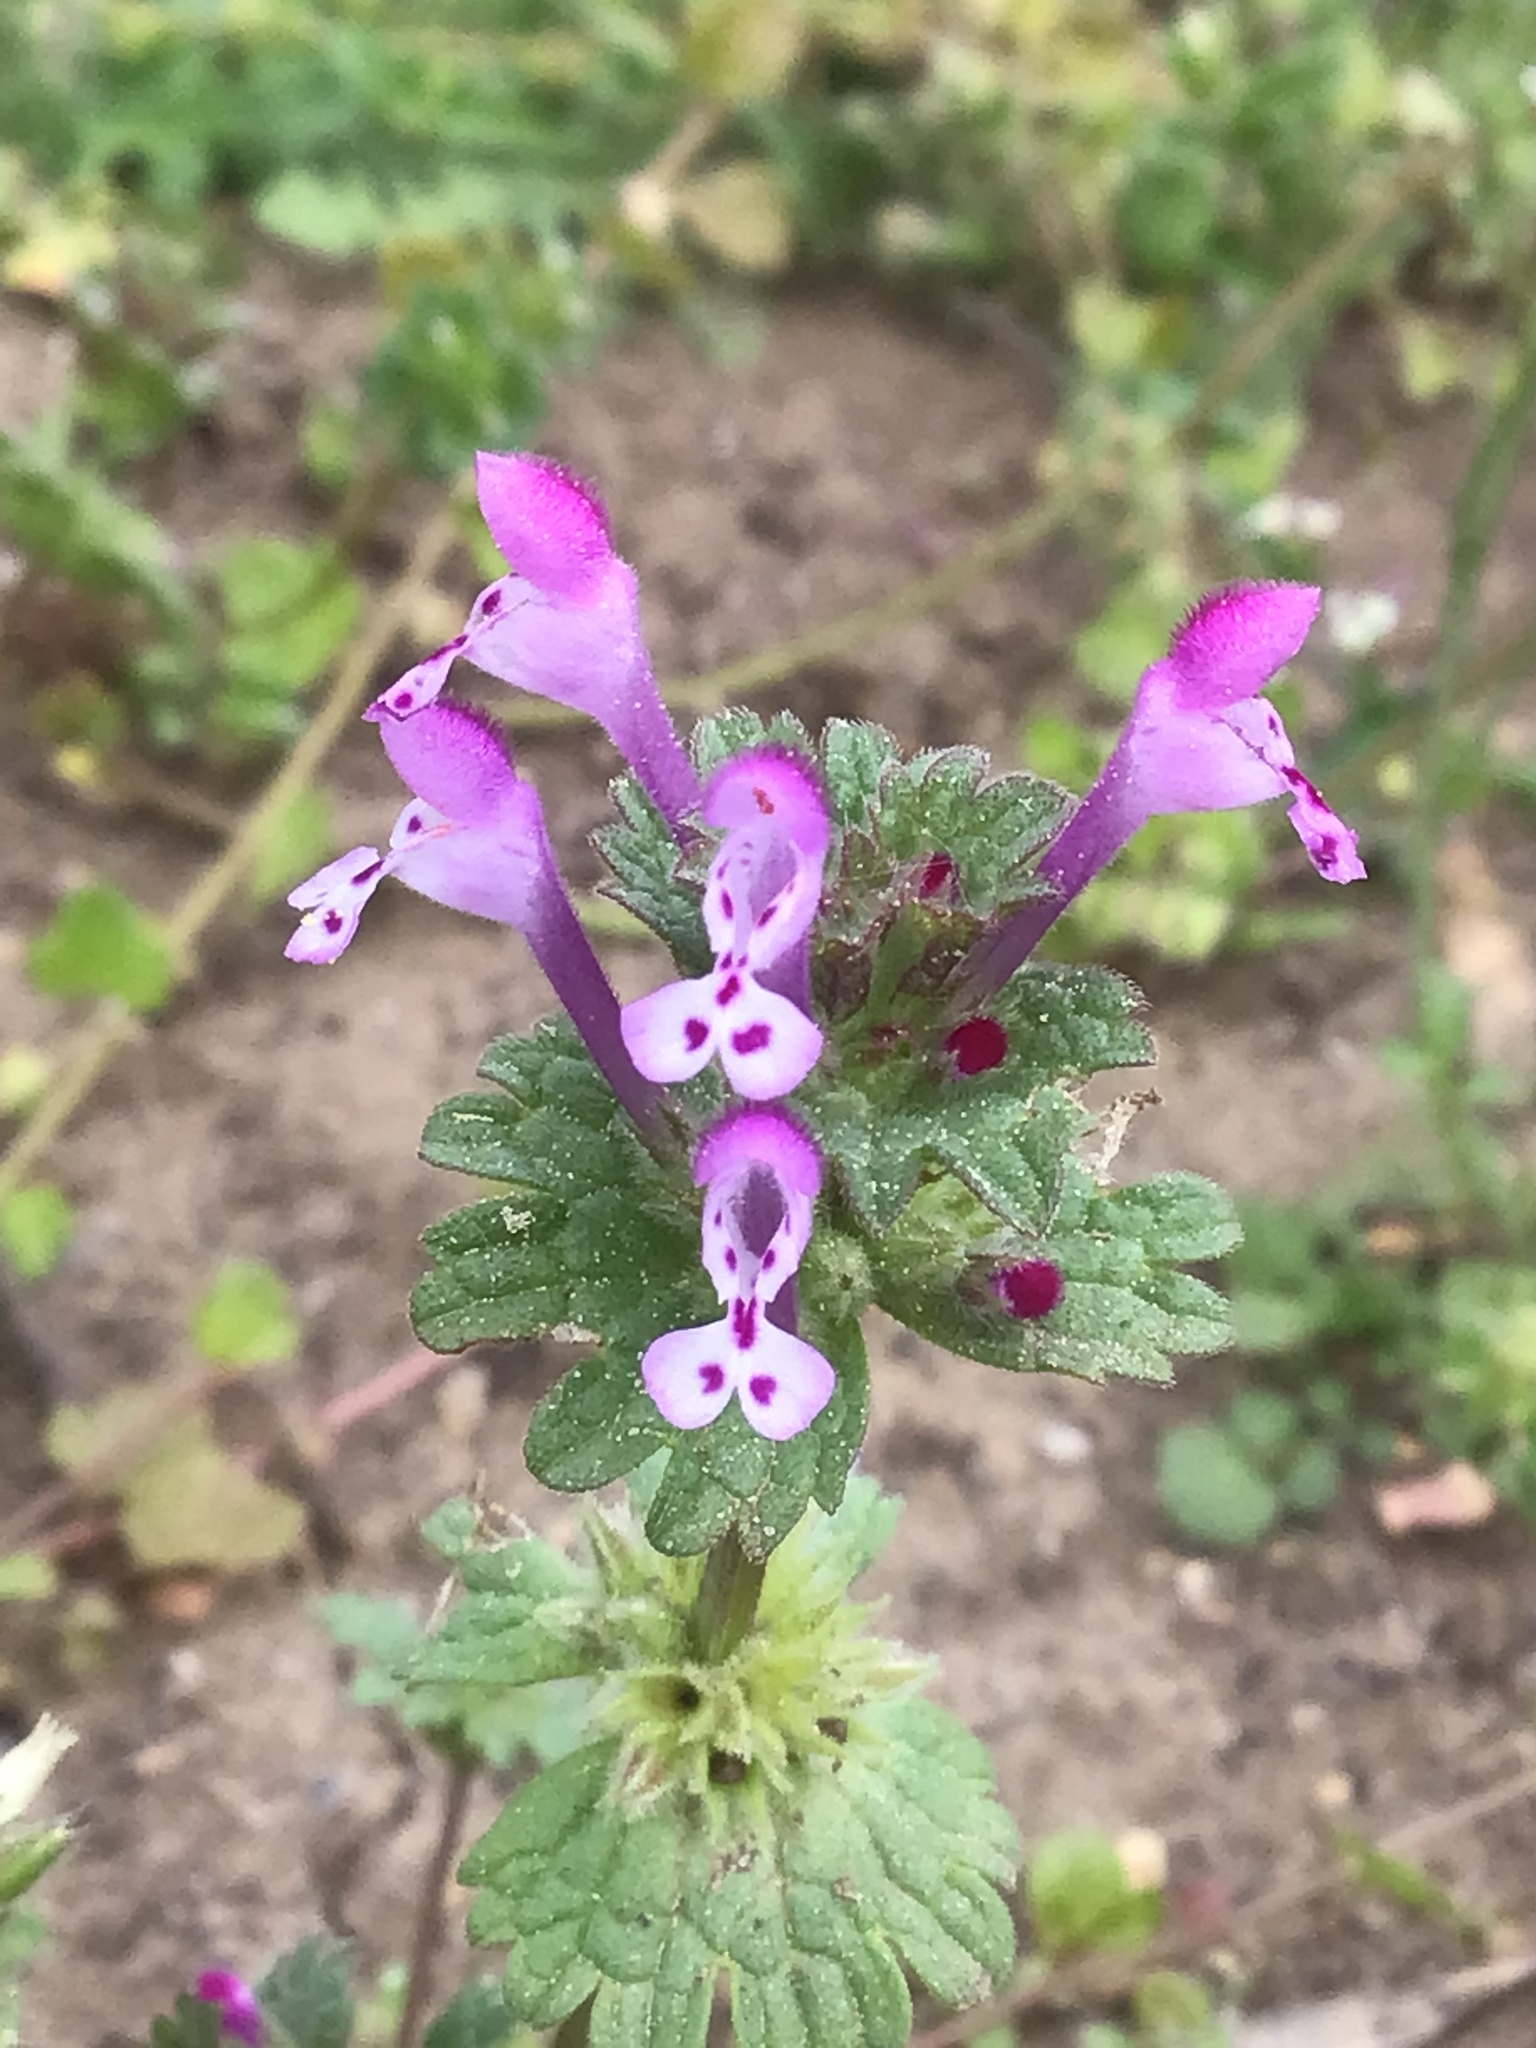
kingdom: Plantae
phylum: Tracheophyta
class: Magnoliopsida
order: Lamiales
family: Lamiaceae
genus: Lamium
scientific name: Lamium amplexicaule
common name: Henbit dead-nettle
